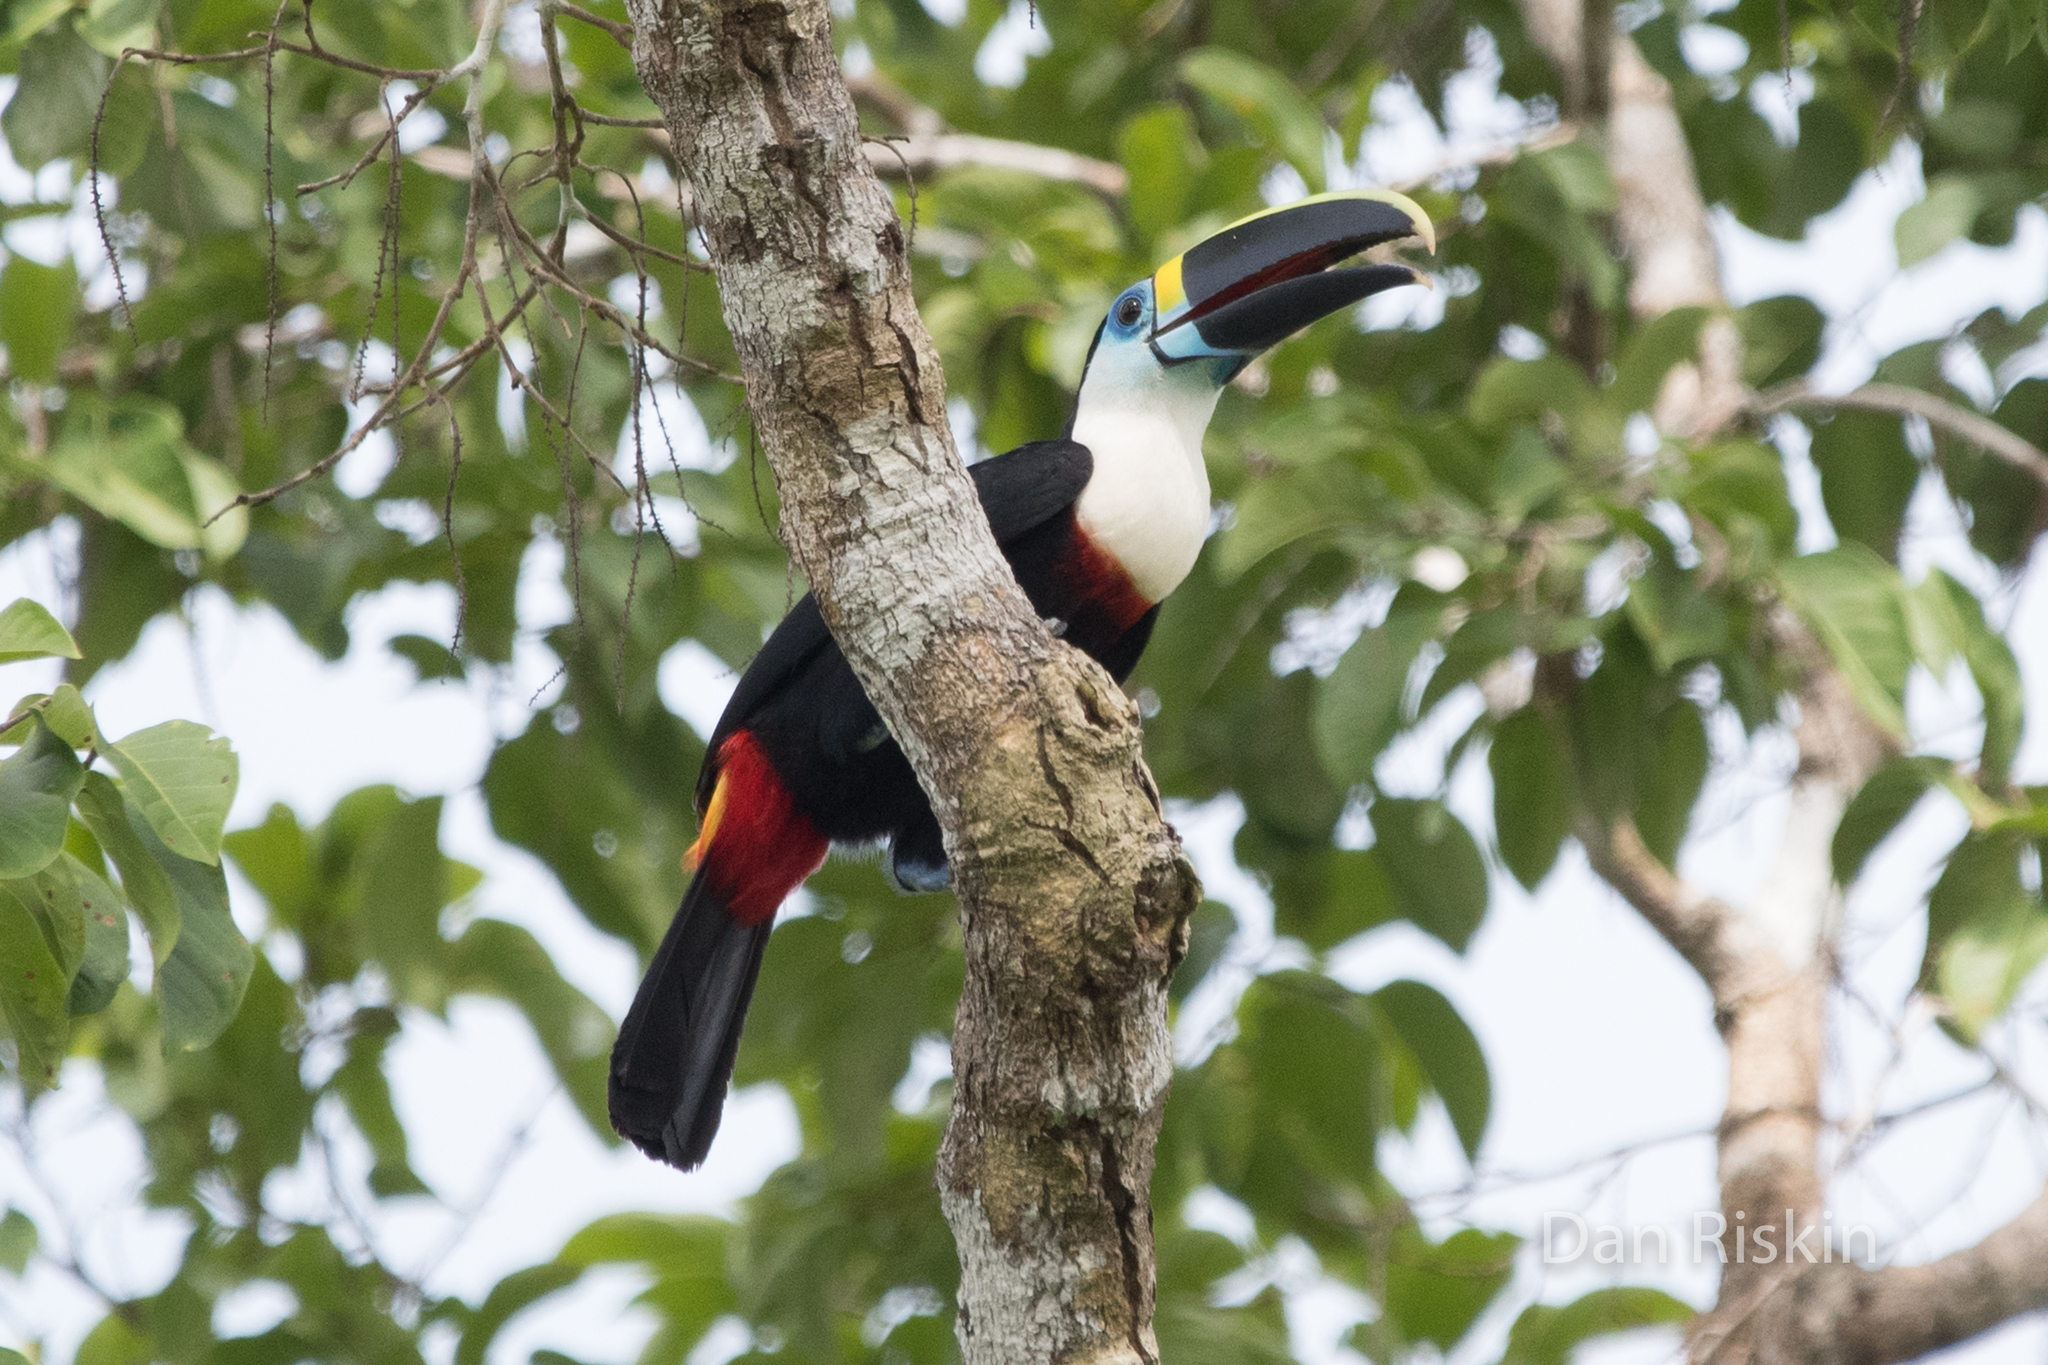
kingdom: Animalia
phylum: Chordata
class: Aves
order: Piciformes
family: Ramphastidae
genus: Ramphastos
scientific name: Ramphastos tucanus
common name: White-throated toucan
